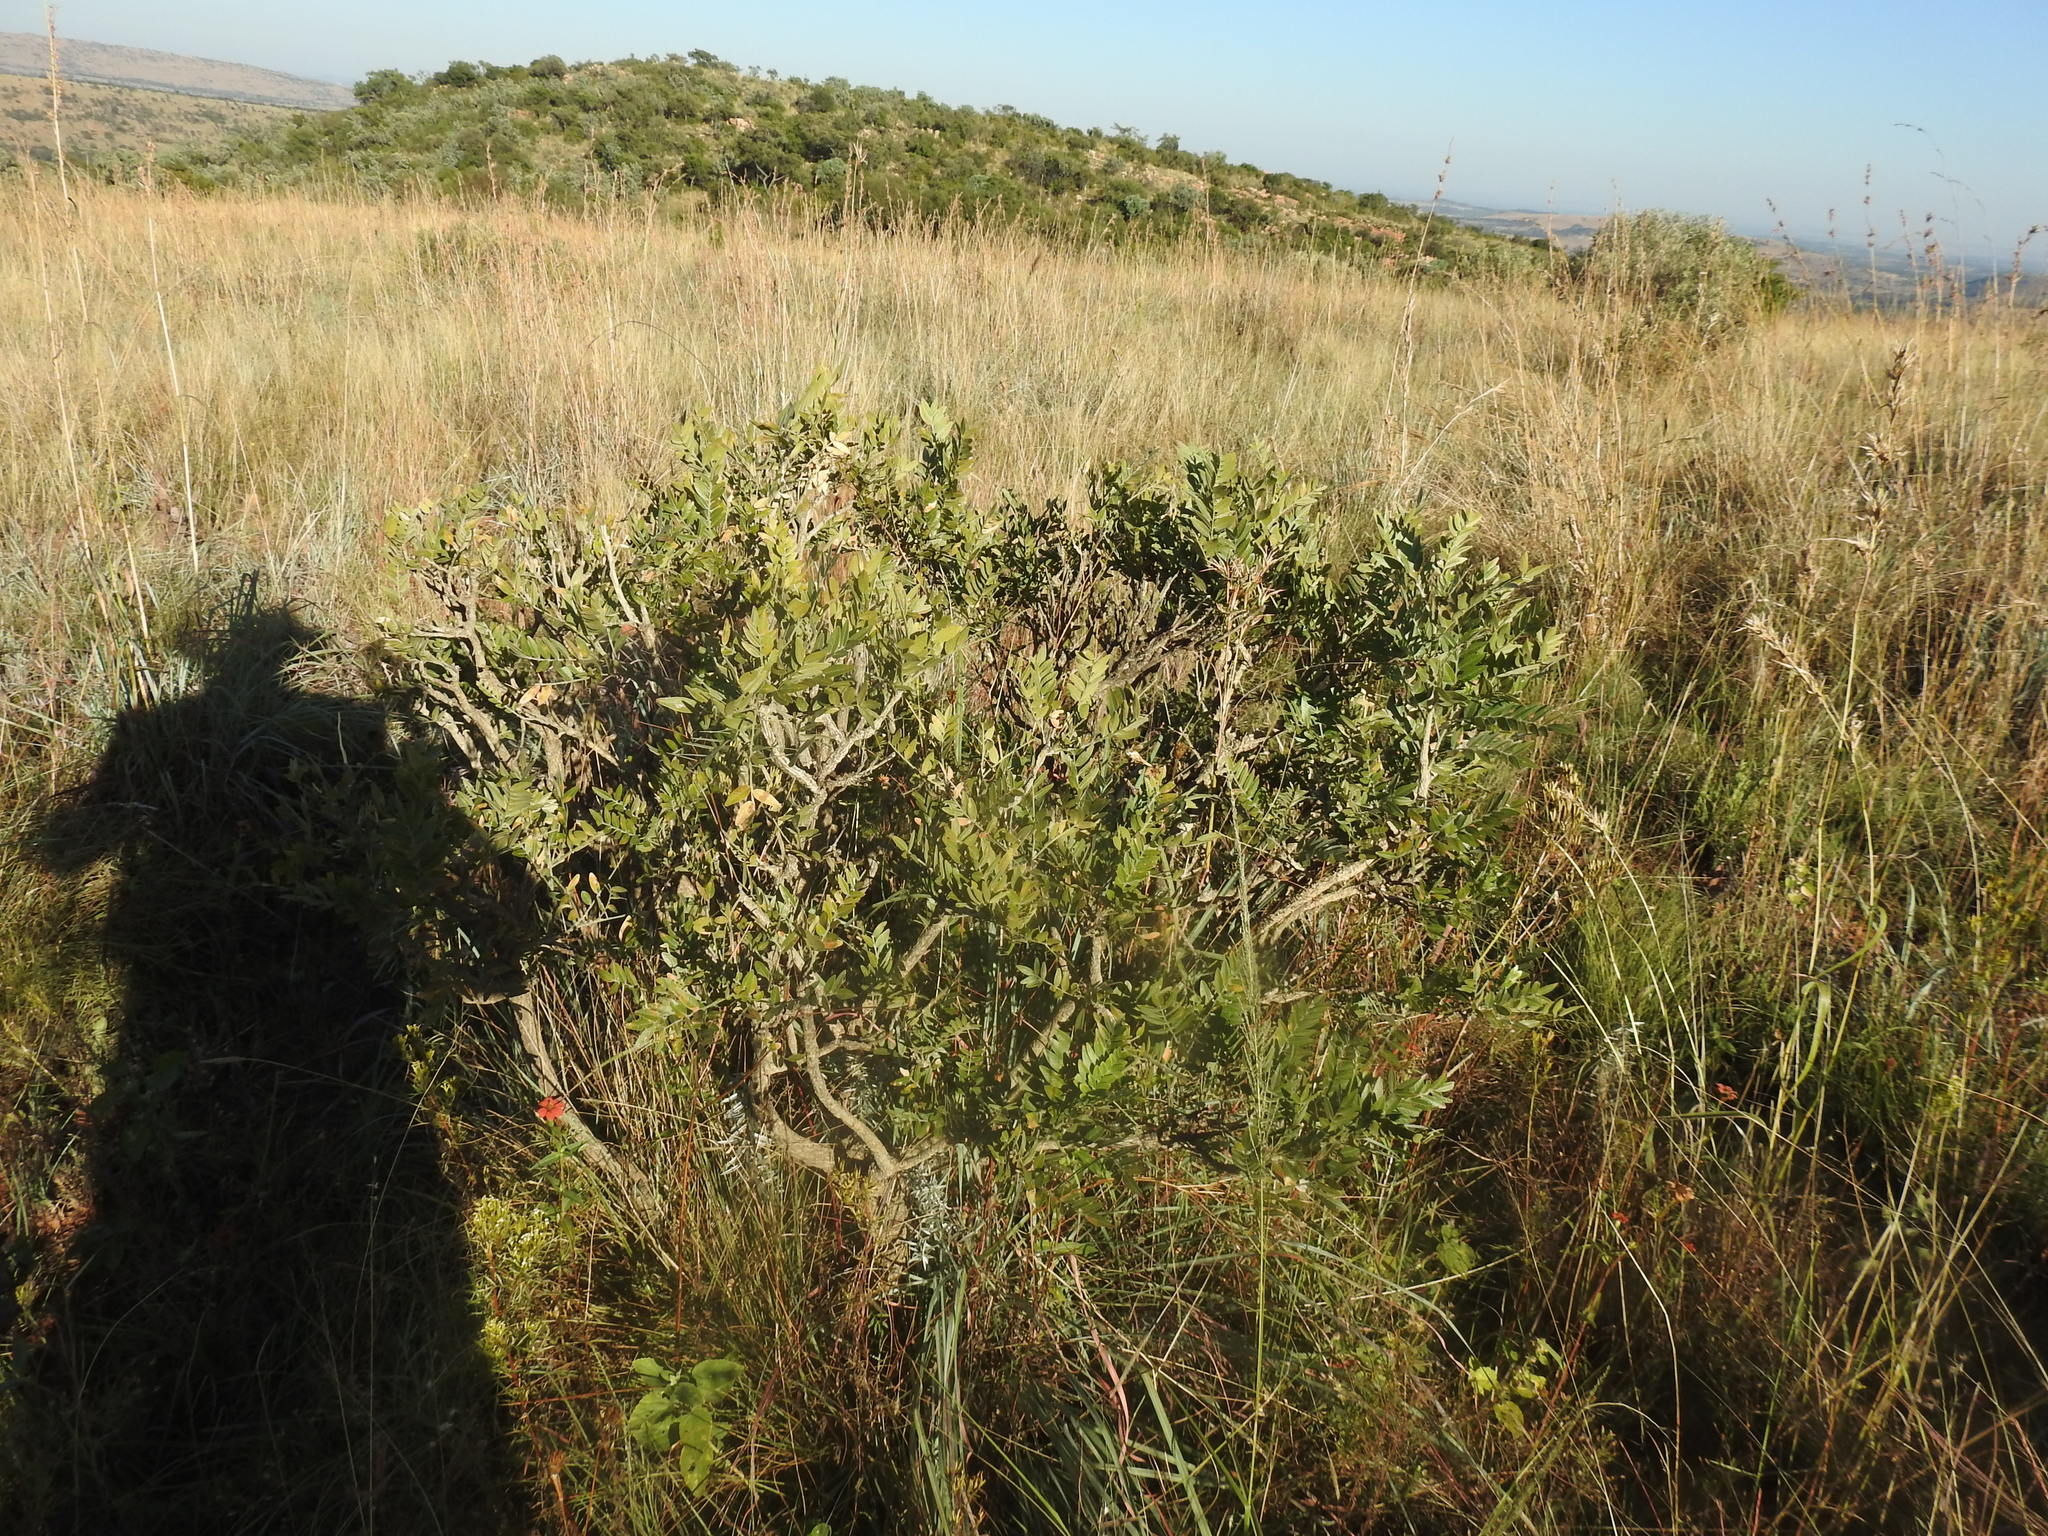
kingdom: Plantae
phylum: Tracheophyta
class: Magnoliopsida
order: Fabales
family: Fabaceae
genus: Mundulea
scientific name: Mundulea sericea
